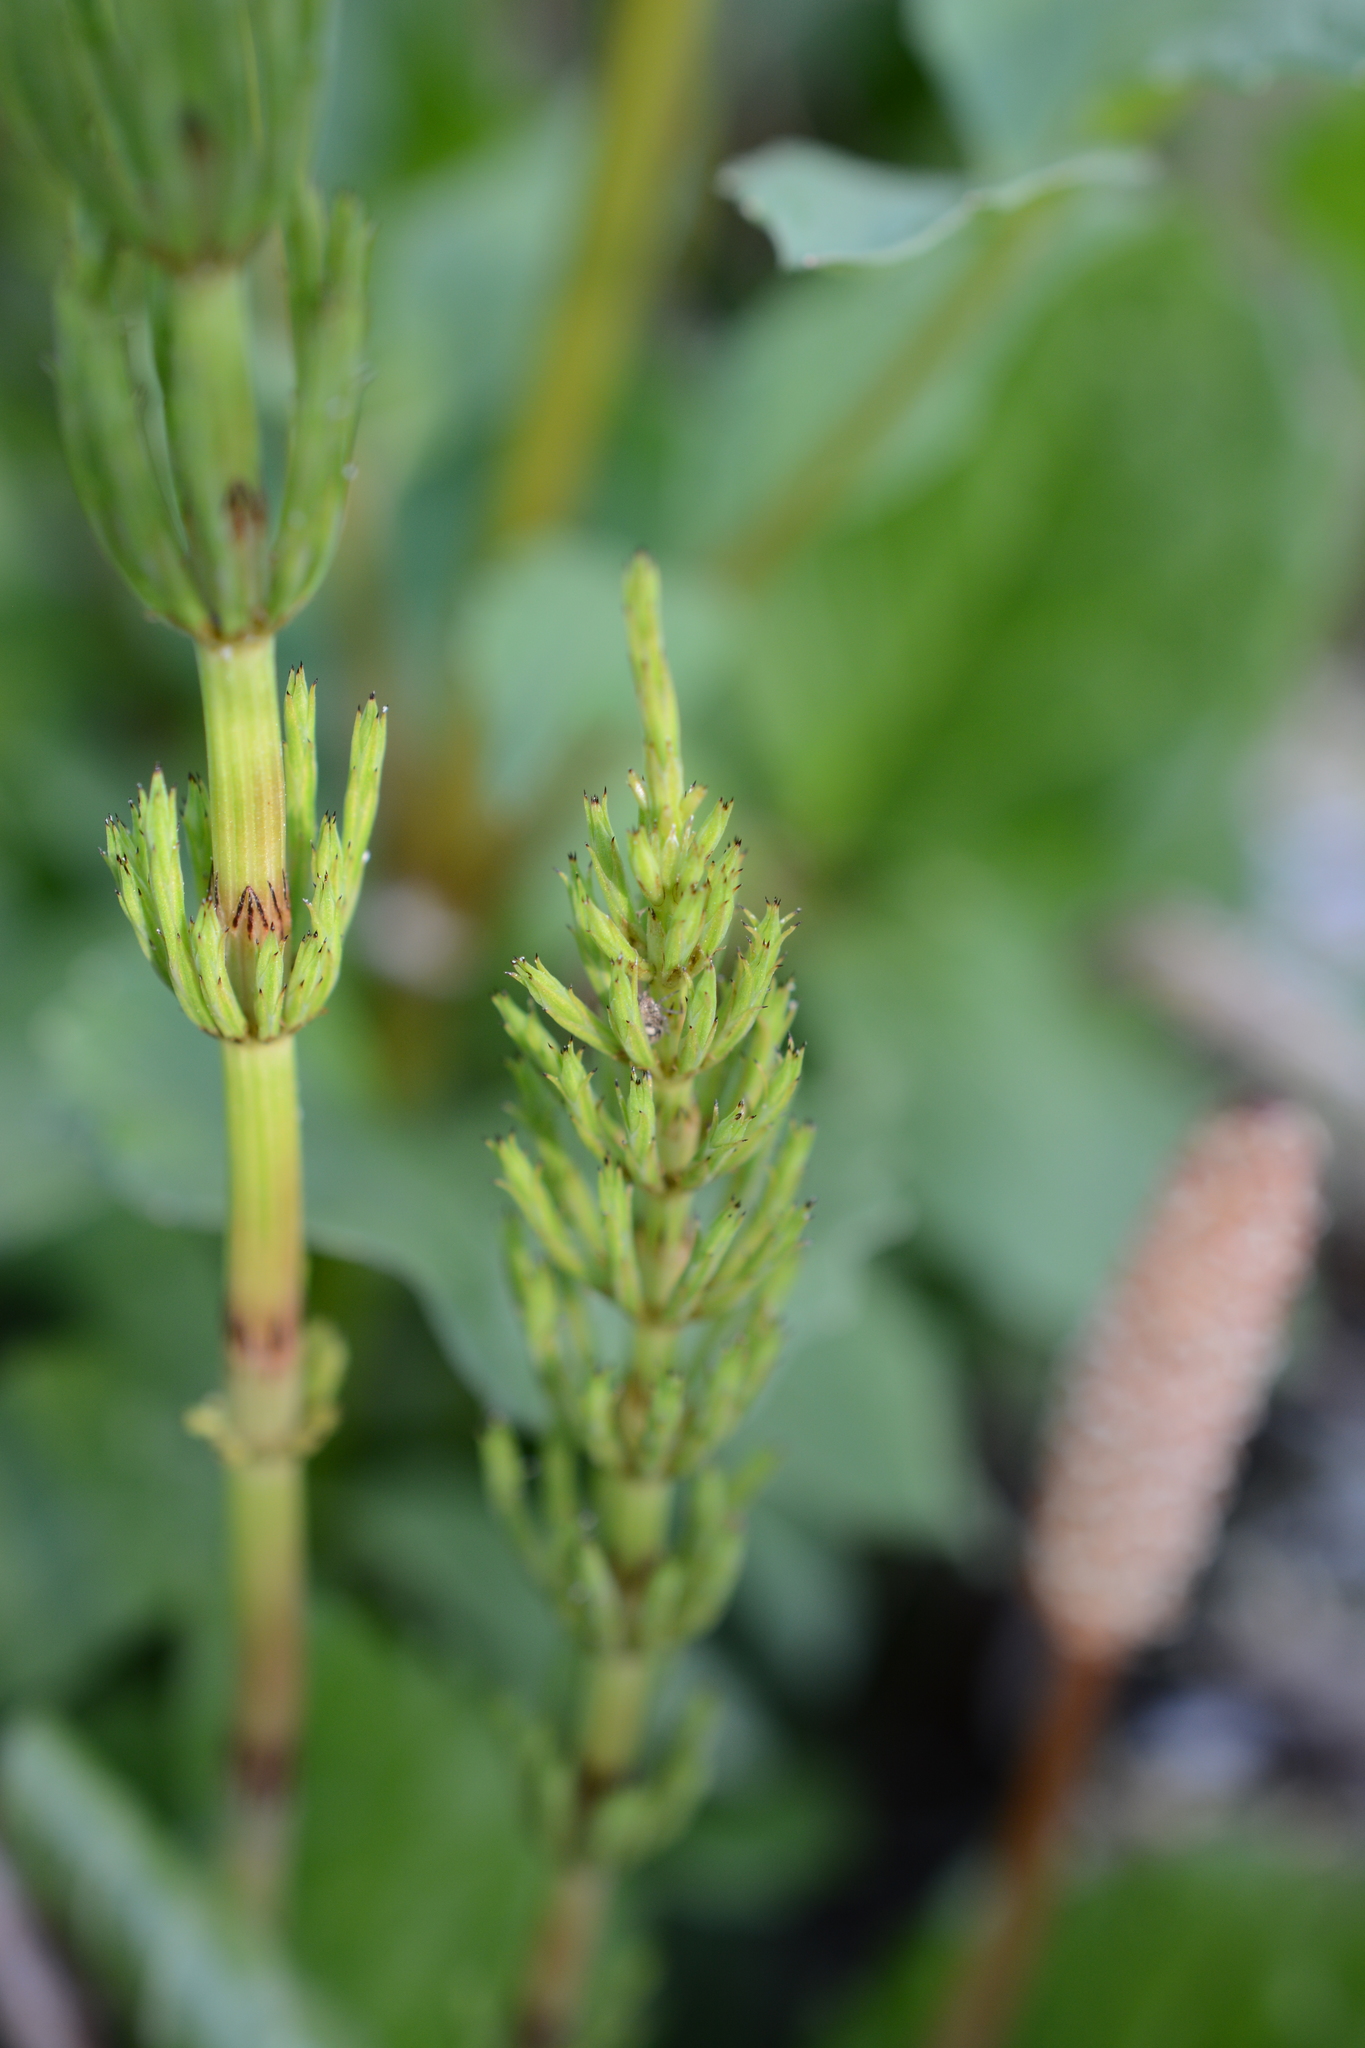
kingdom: Plantae
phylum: Tracheophyta
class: Polypodiopsida
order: Equisetales
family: Equisetaceae
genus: Equisetum
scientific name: Equisetum arvense
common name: Field horsetail
